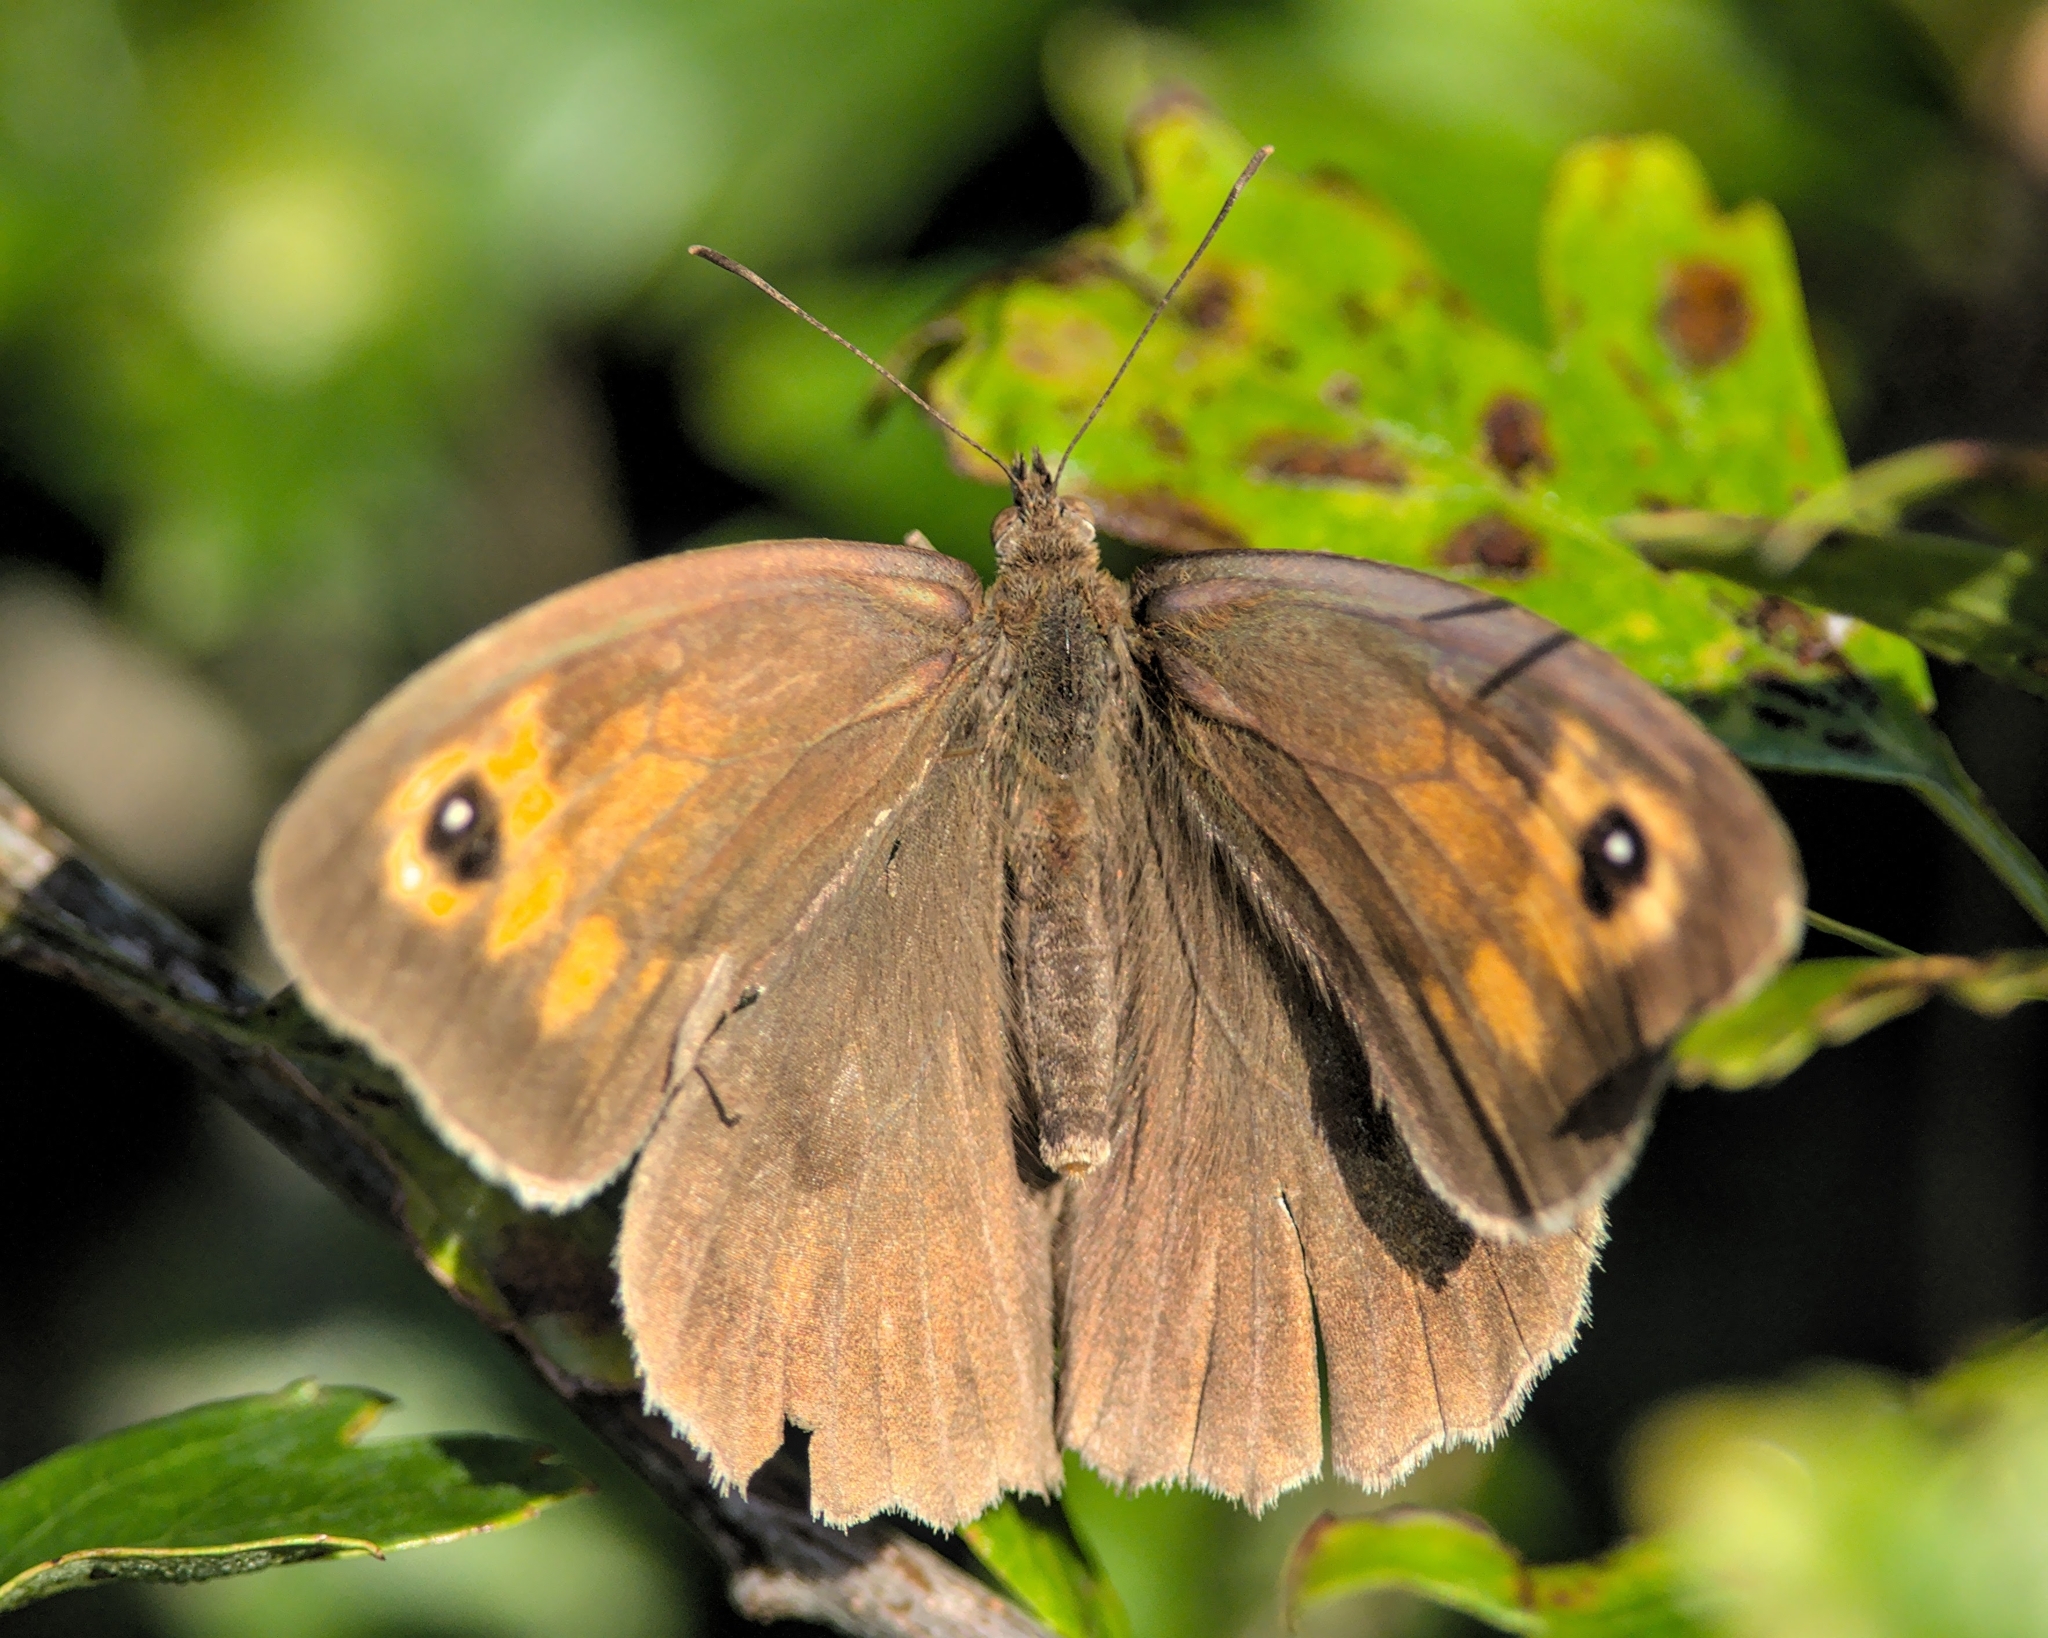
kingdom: Animalia
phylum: Arthropoda
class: Insecta
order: Lepidoptera
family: Nymphalidae
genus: Maniola
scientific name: Maniola jurtina
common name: Meadow brown
